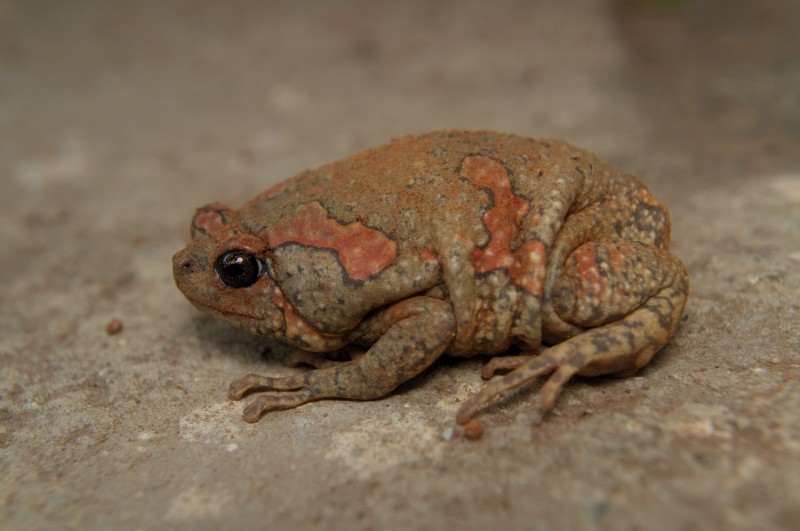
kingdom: Animalia
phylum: Chordata
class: Amphibia
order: Anura
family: Microhylidae
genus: Uperodon
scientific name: Uperodon taprobanicus
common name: Ceylon kaloula
